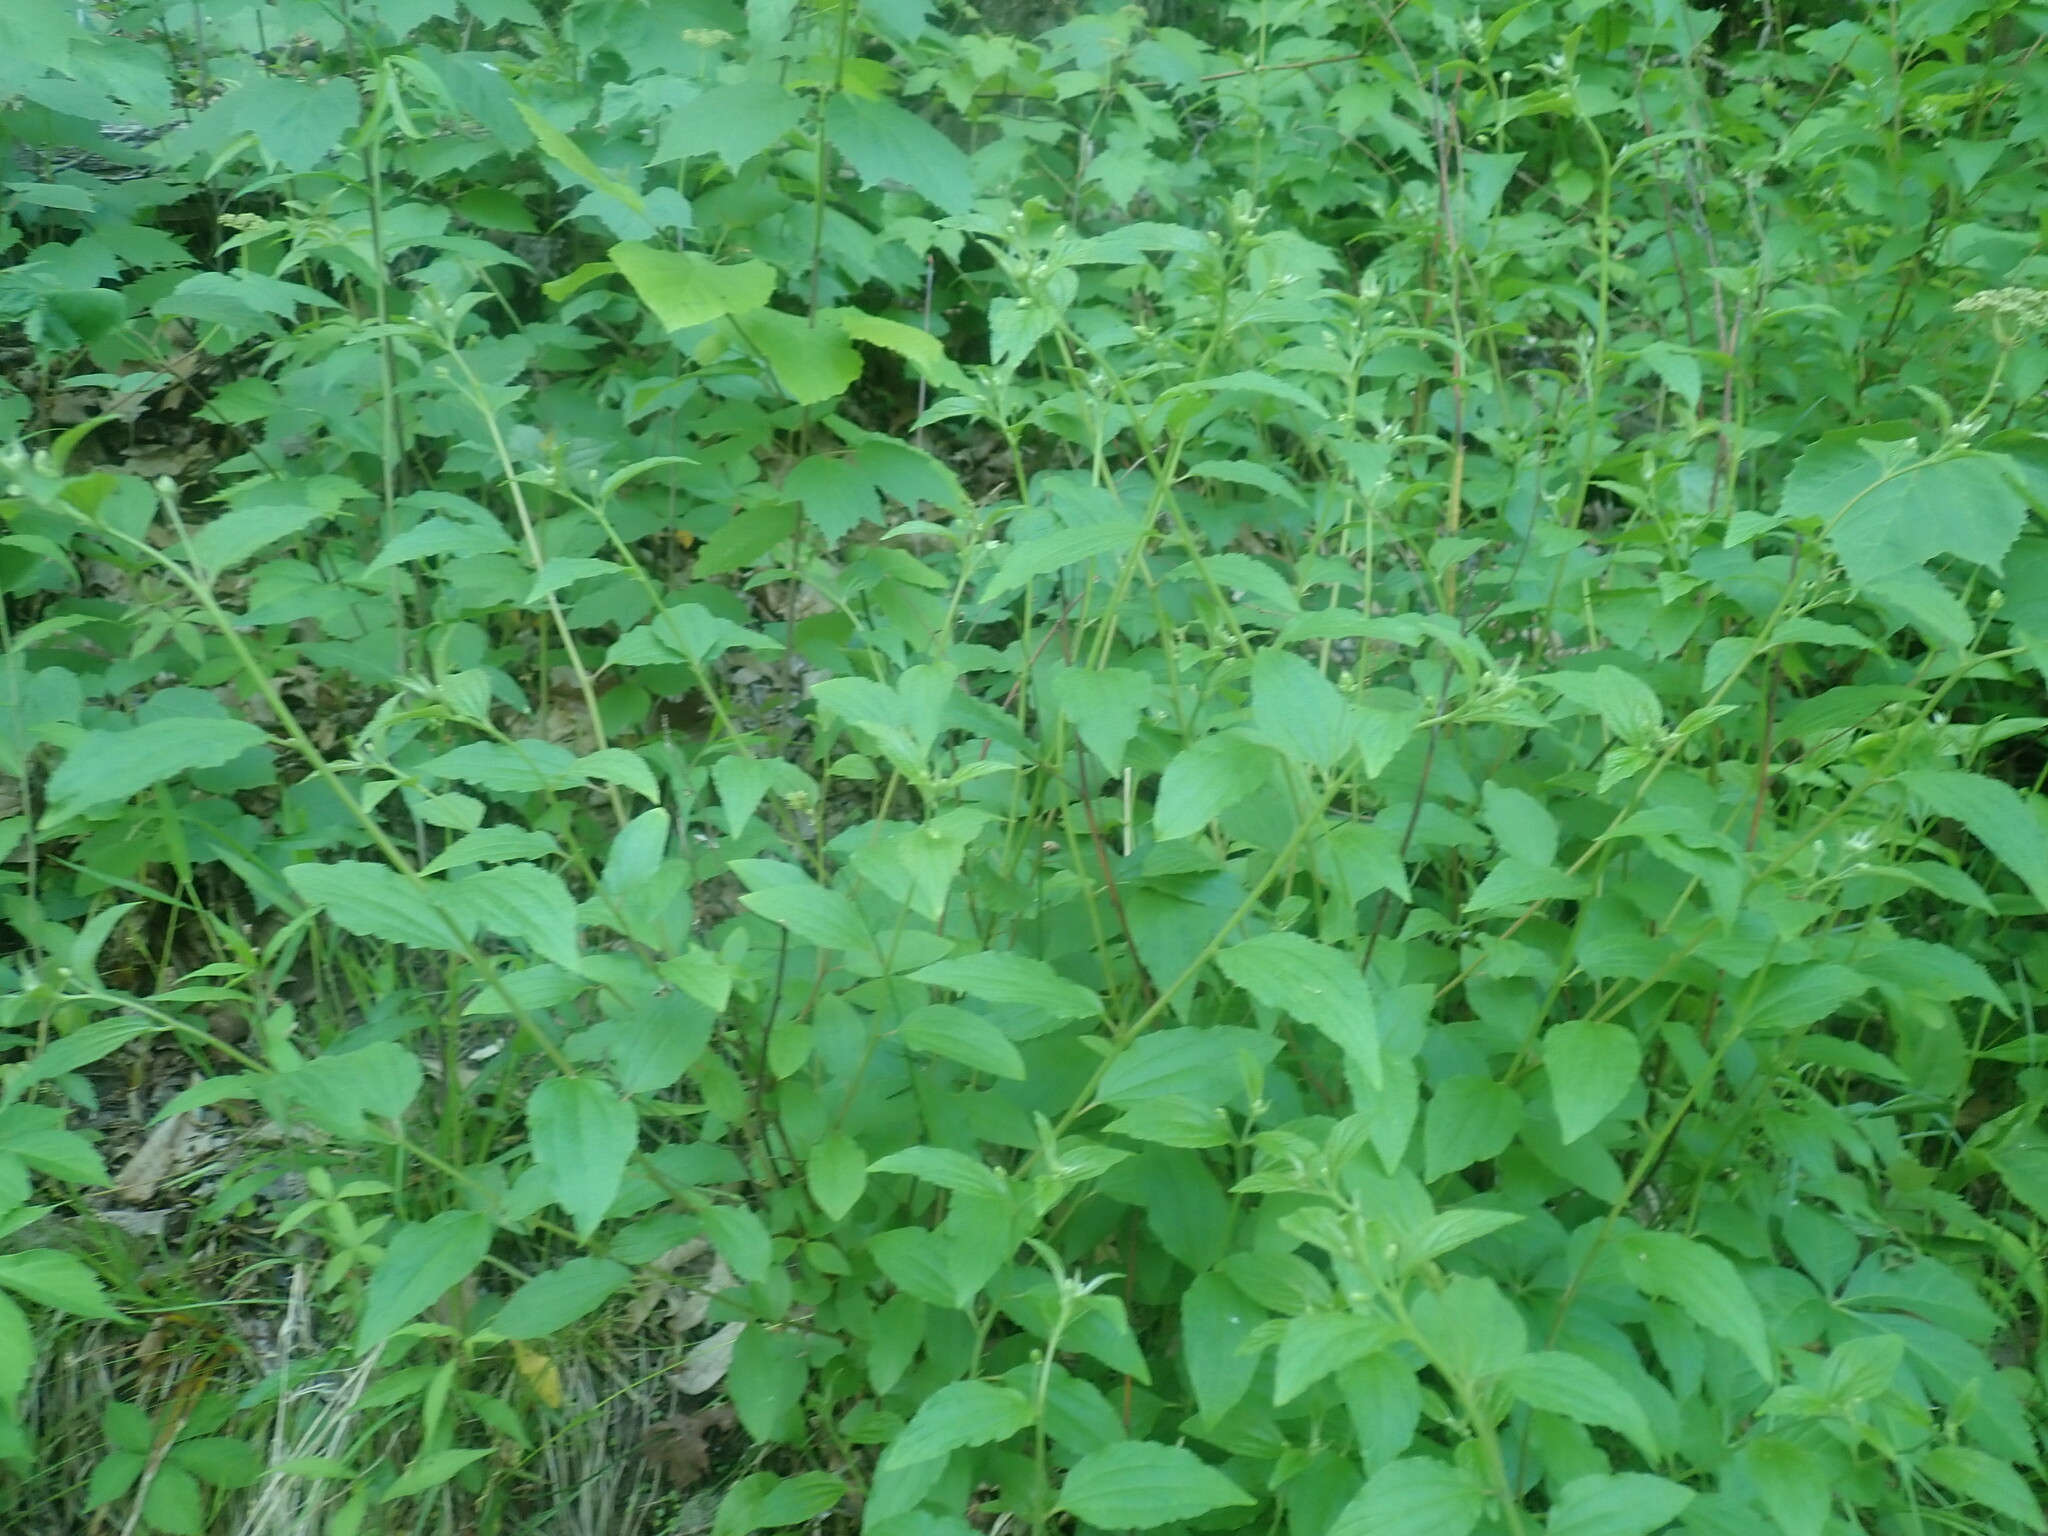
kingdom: Plantae
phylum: Tracheophyta
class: Magnoliopsida
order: Rosales
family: Rhamnaceae
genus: Ceanothus
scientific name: Ceanothus americanus
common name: Redroot
